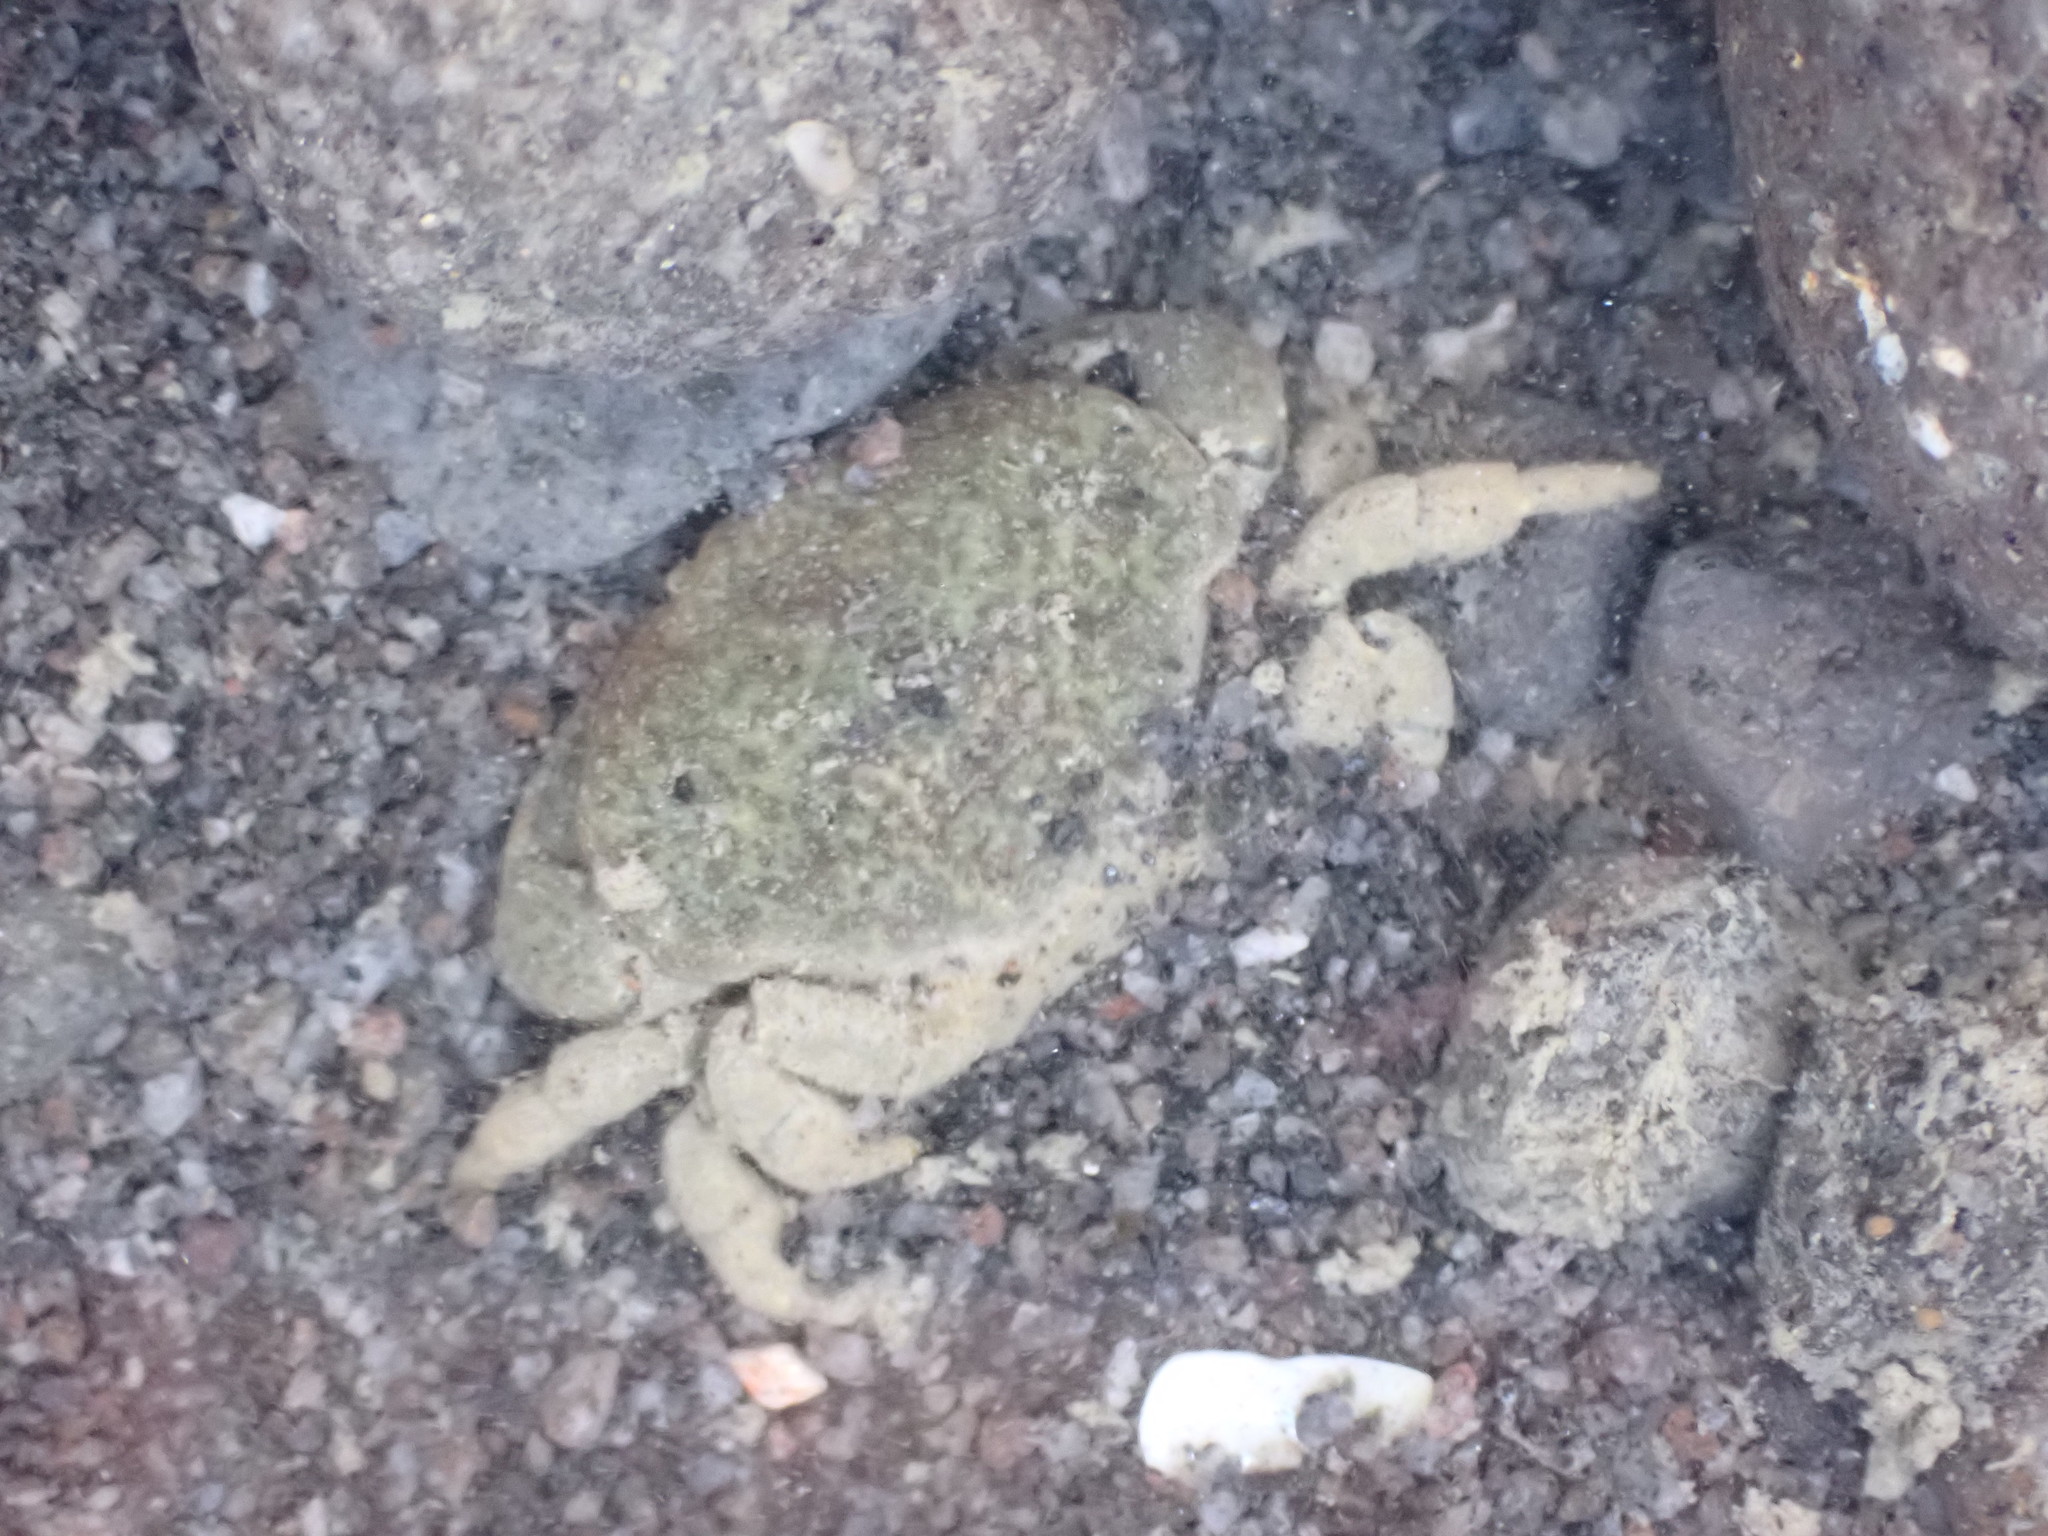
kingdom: Animalia
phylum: Arthropoda
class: Malacostraca
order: Decapoda
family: Heteroziidae
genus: Heterozius
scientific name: Heterozius rotundifrons
